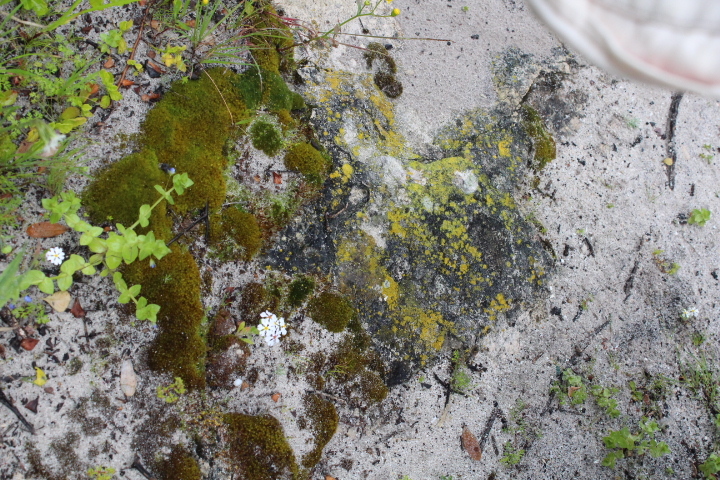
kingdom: Plantae
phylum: Bryophyta
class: Bryopsida
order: Funariales
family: Funariaceae
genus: Funaria
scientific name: Funaria hygrometrica
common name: Common cord moss
